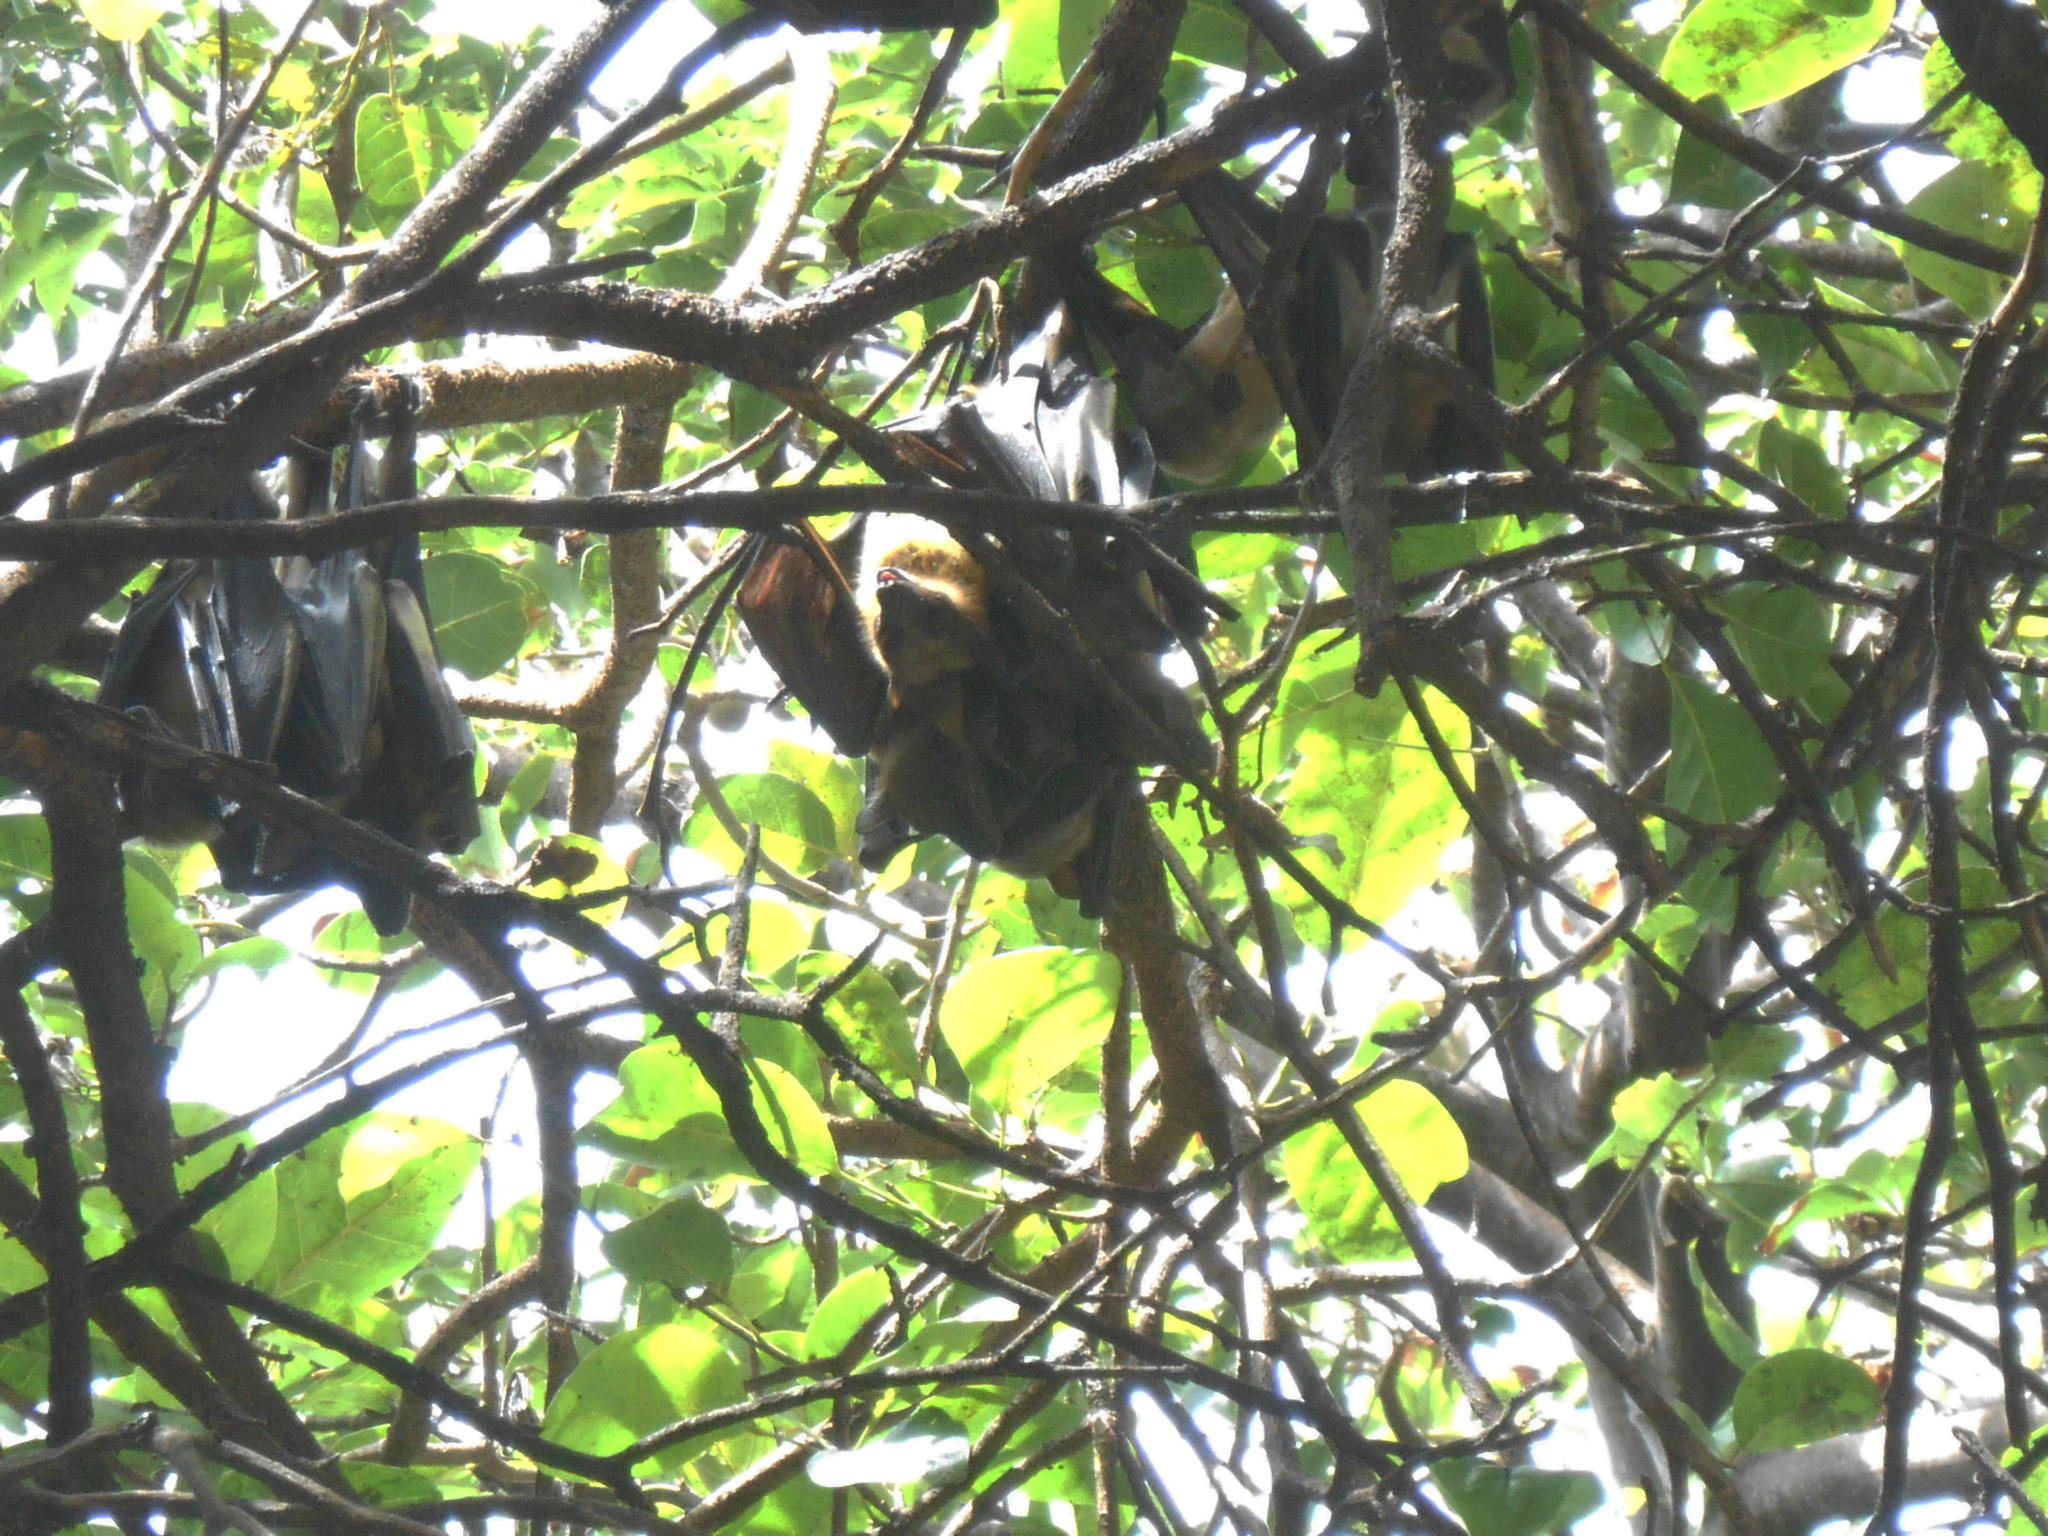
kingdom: Animalia
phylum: Chordata
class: Mammalia
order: Chiroptera
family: Pteropodidae
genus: Eidolon
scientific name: Eidolon helvum
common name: Straw-colored fruit bat
